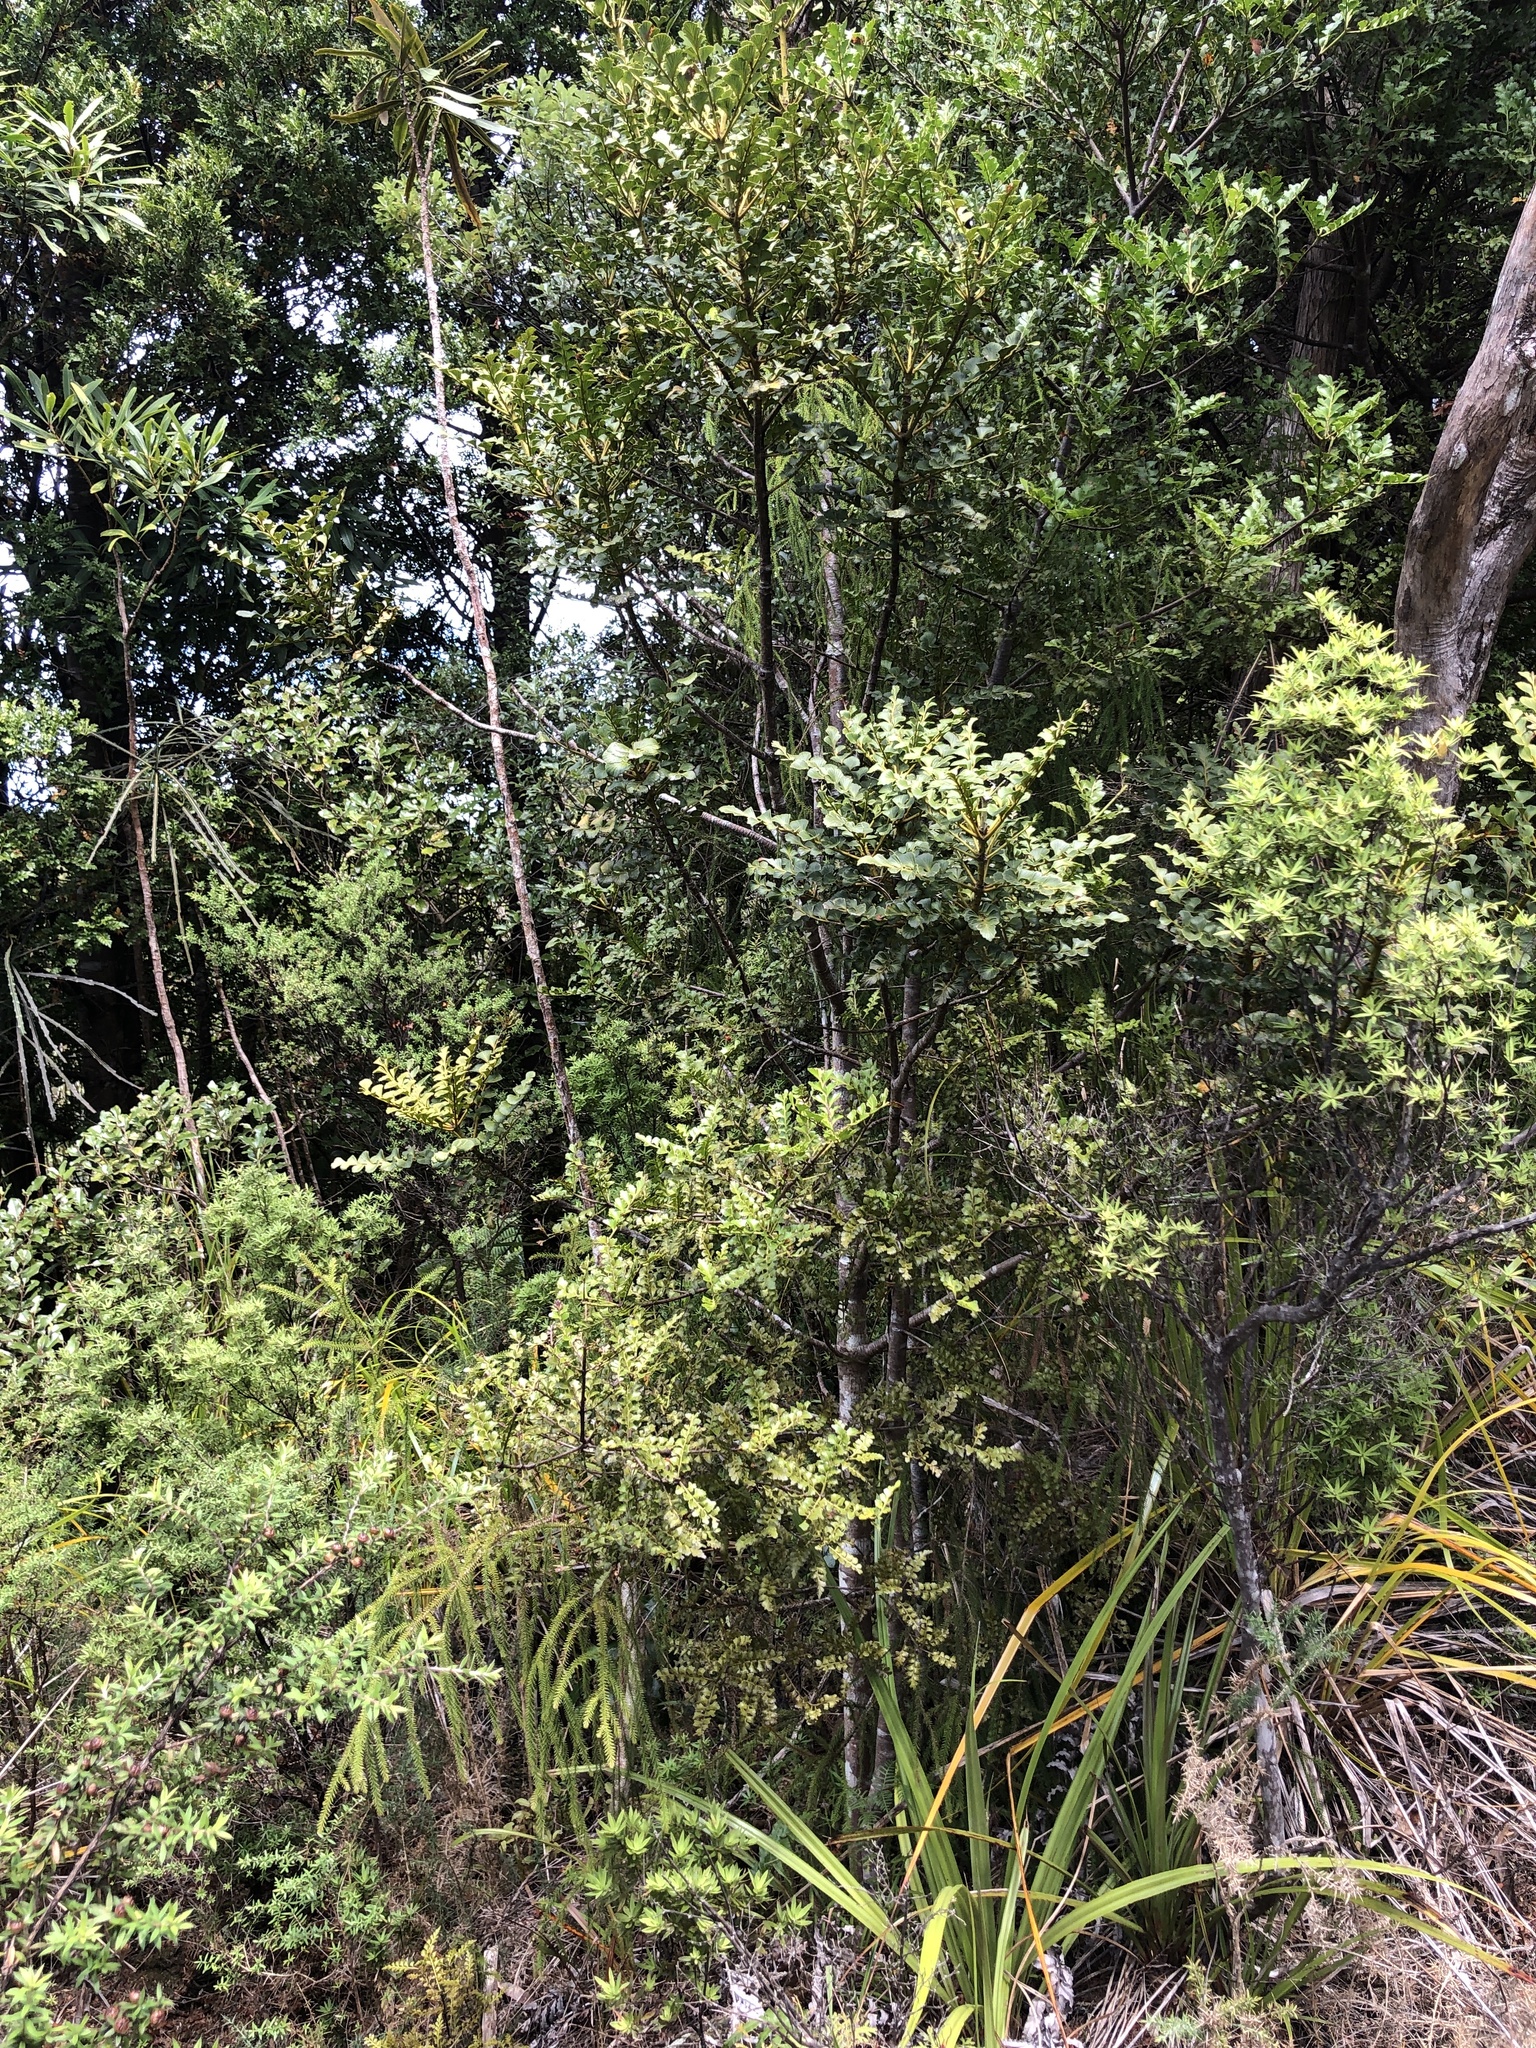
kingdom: Plantae
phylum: Tracheophyta
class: Pinopsida
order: Pinales
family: Phyllocladaceae
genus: Phyllocladus
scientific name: Phyllocladus toatoa
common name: Celery-top pine
